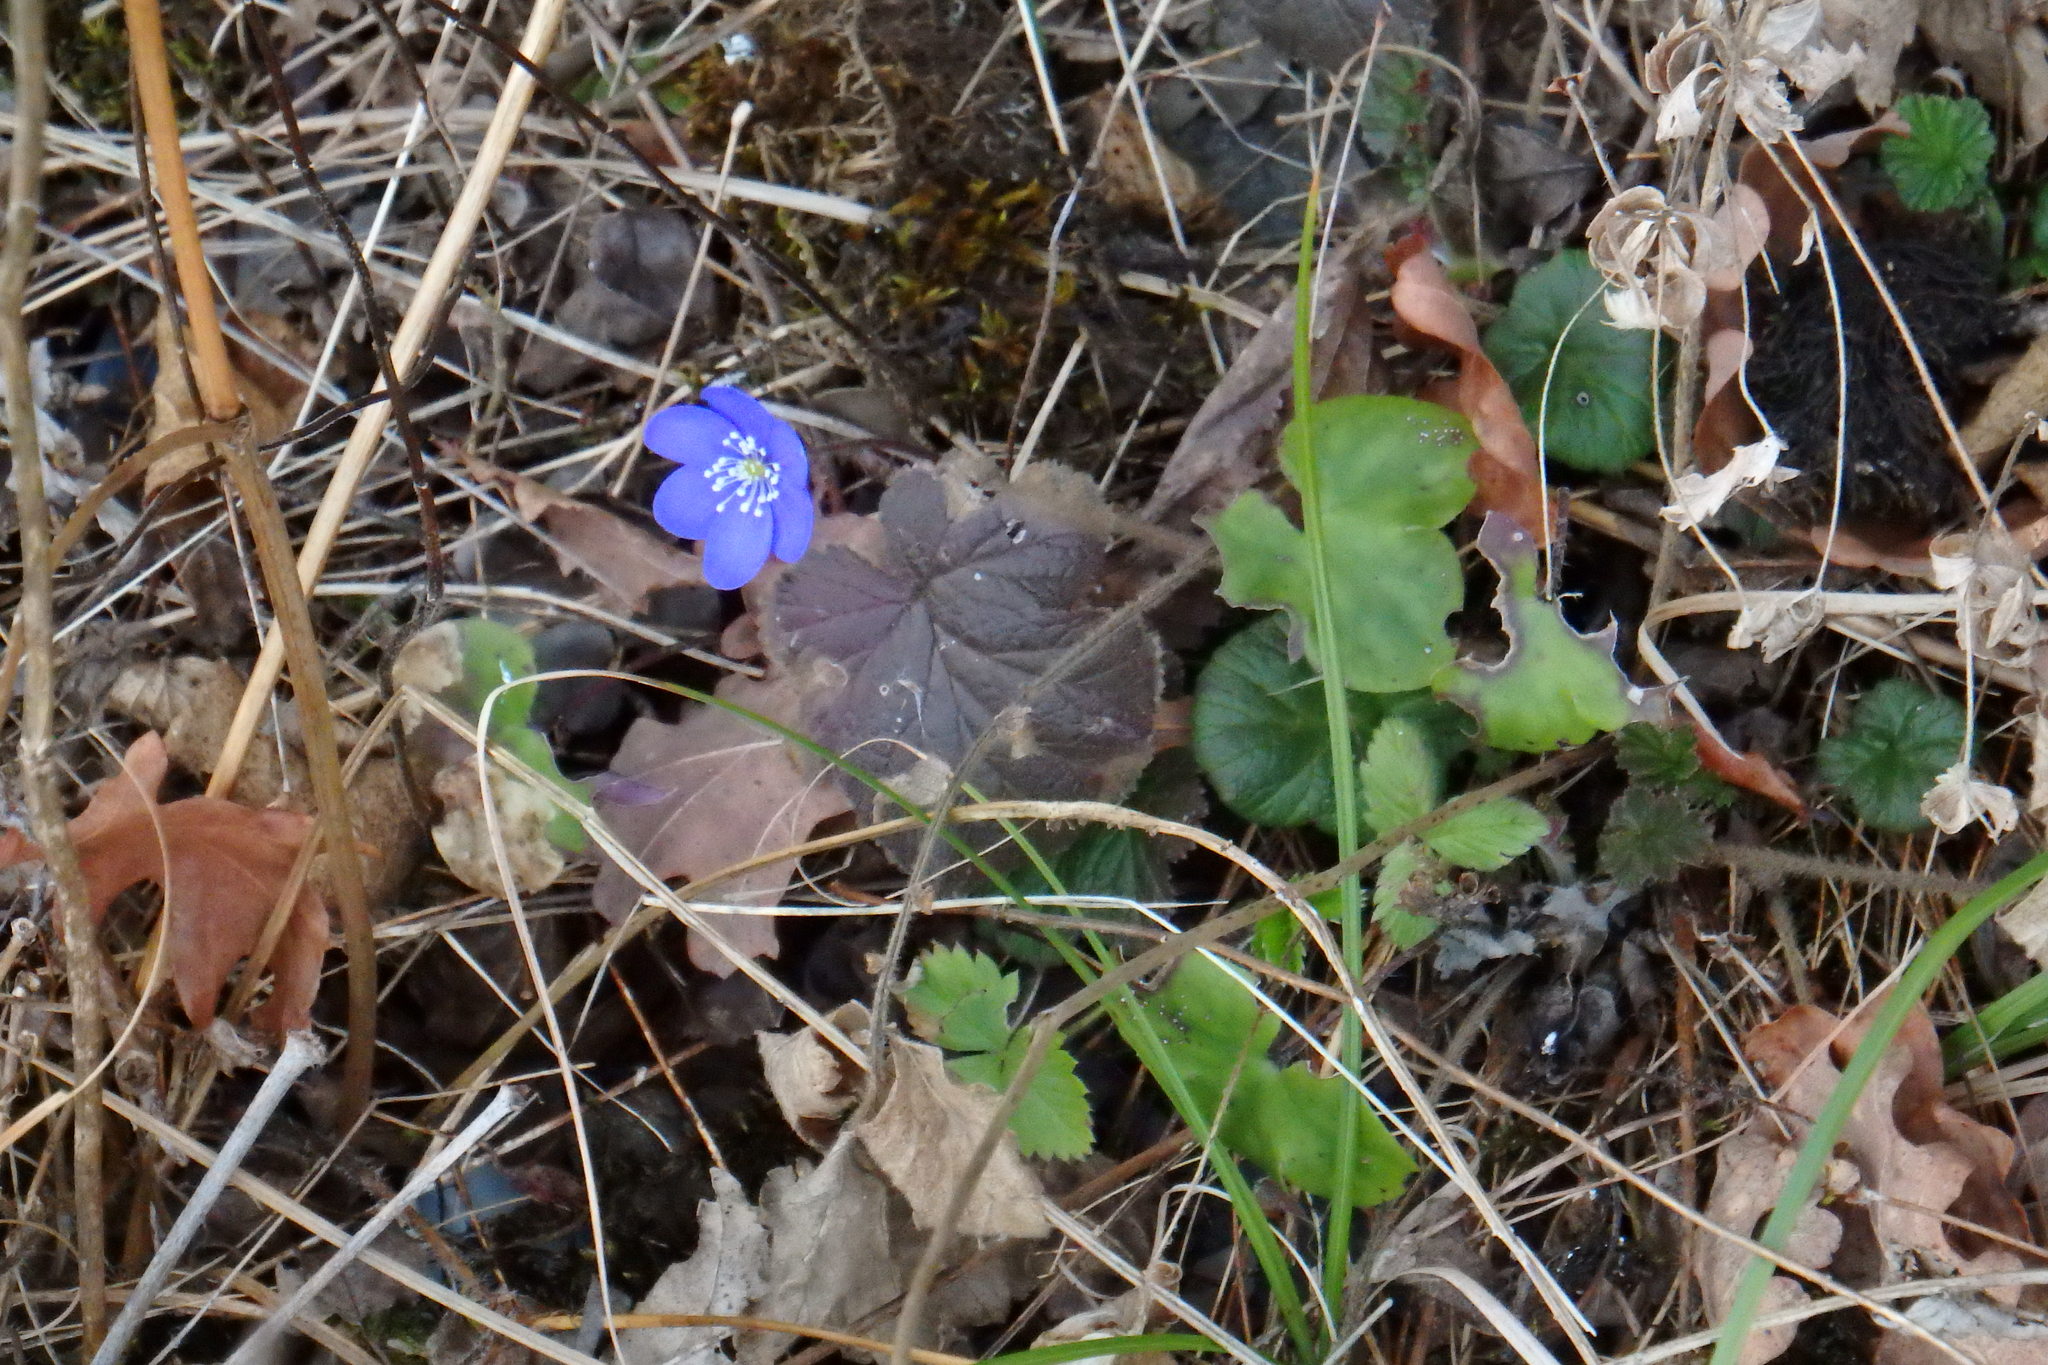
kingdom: Plantae
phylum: Tracheophyta
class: Magnoliopsida
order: Ranunculales
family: Ranunculaceae
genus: Hepatica
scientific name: Hepatica nobilis
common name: Liverleaf
